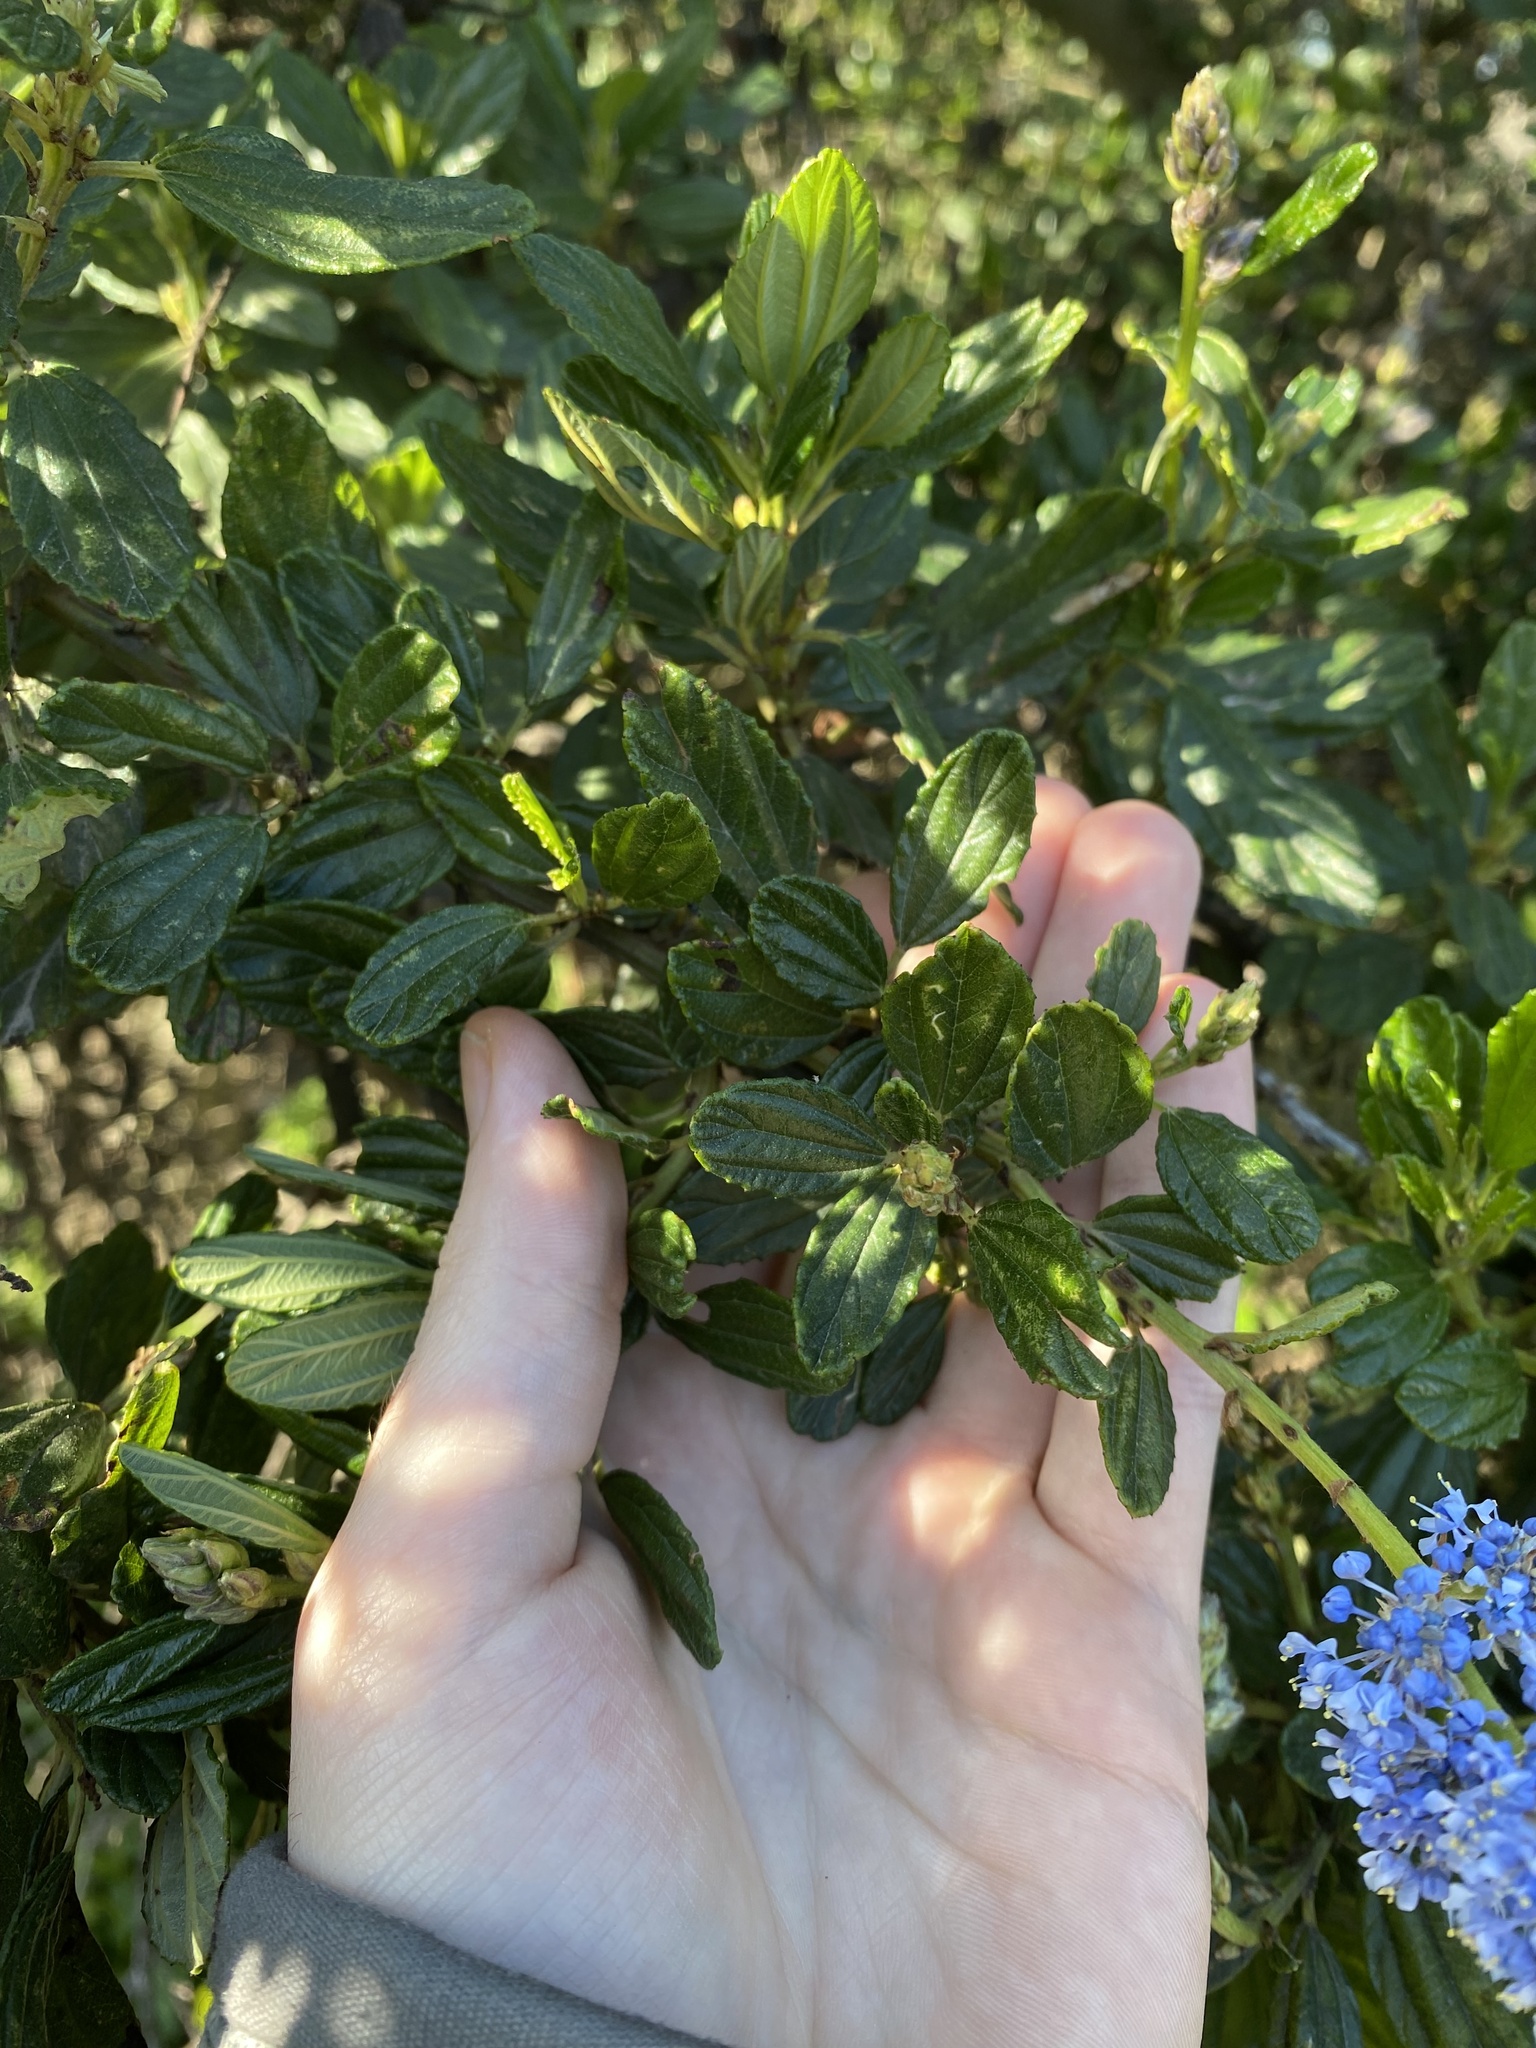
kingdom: Plantae
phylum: Tracheophyta
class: Magnoliopsida
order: Rosales
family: Rhamnaceae
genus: Ceanothus
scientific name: Ceanothus thyrsiflorus
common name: California-lilac
